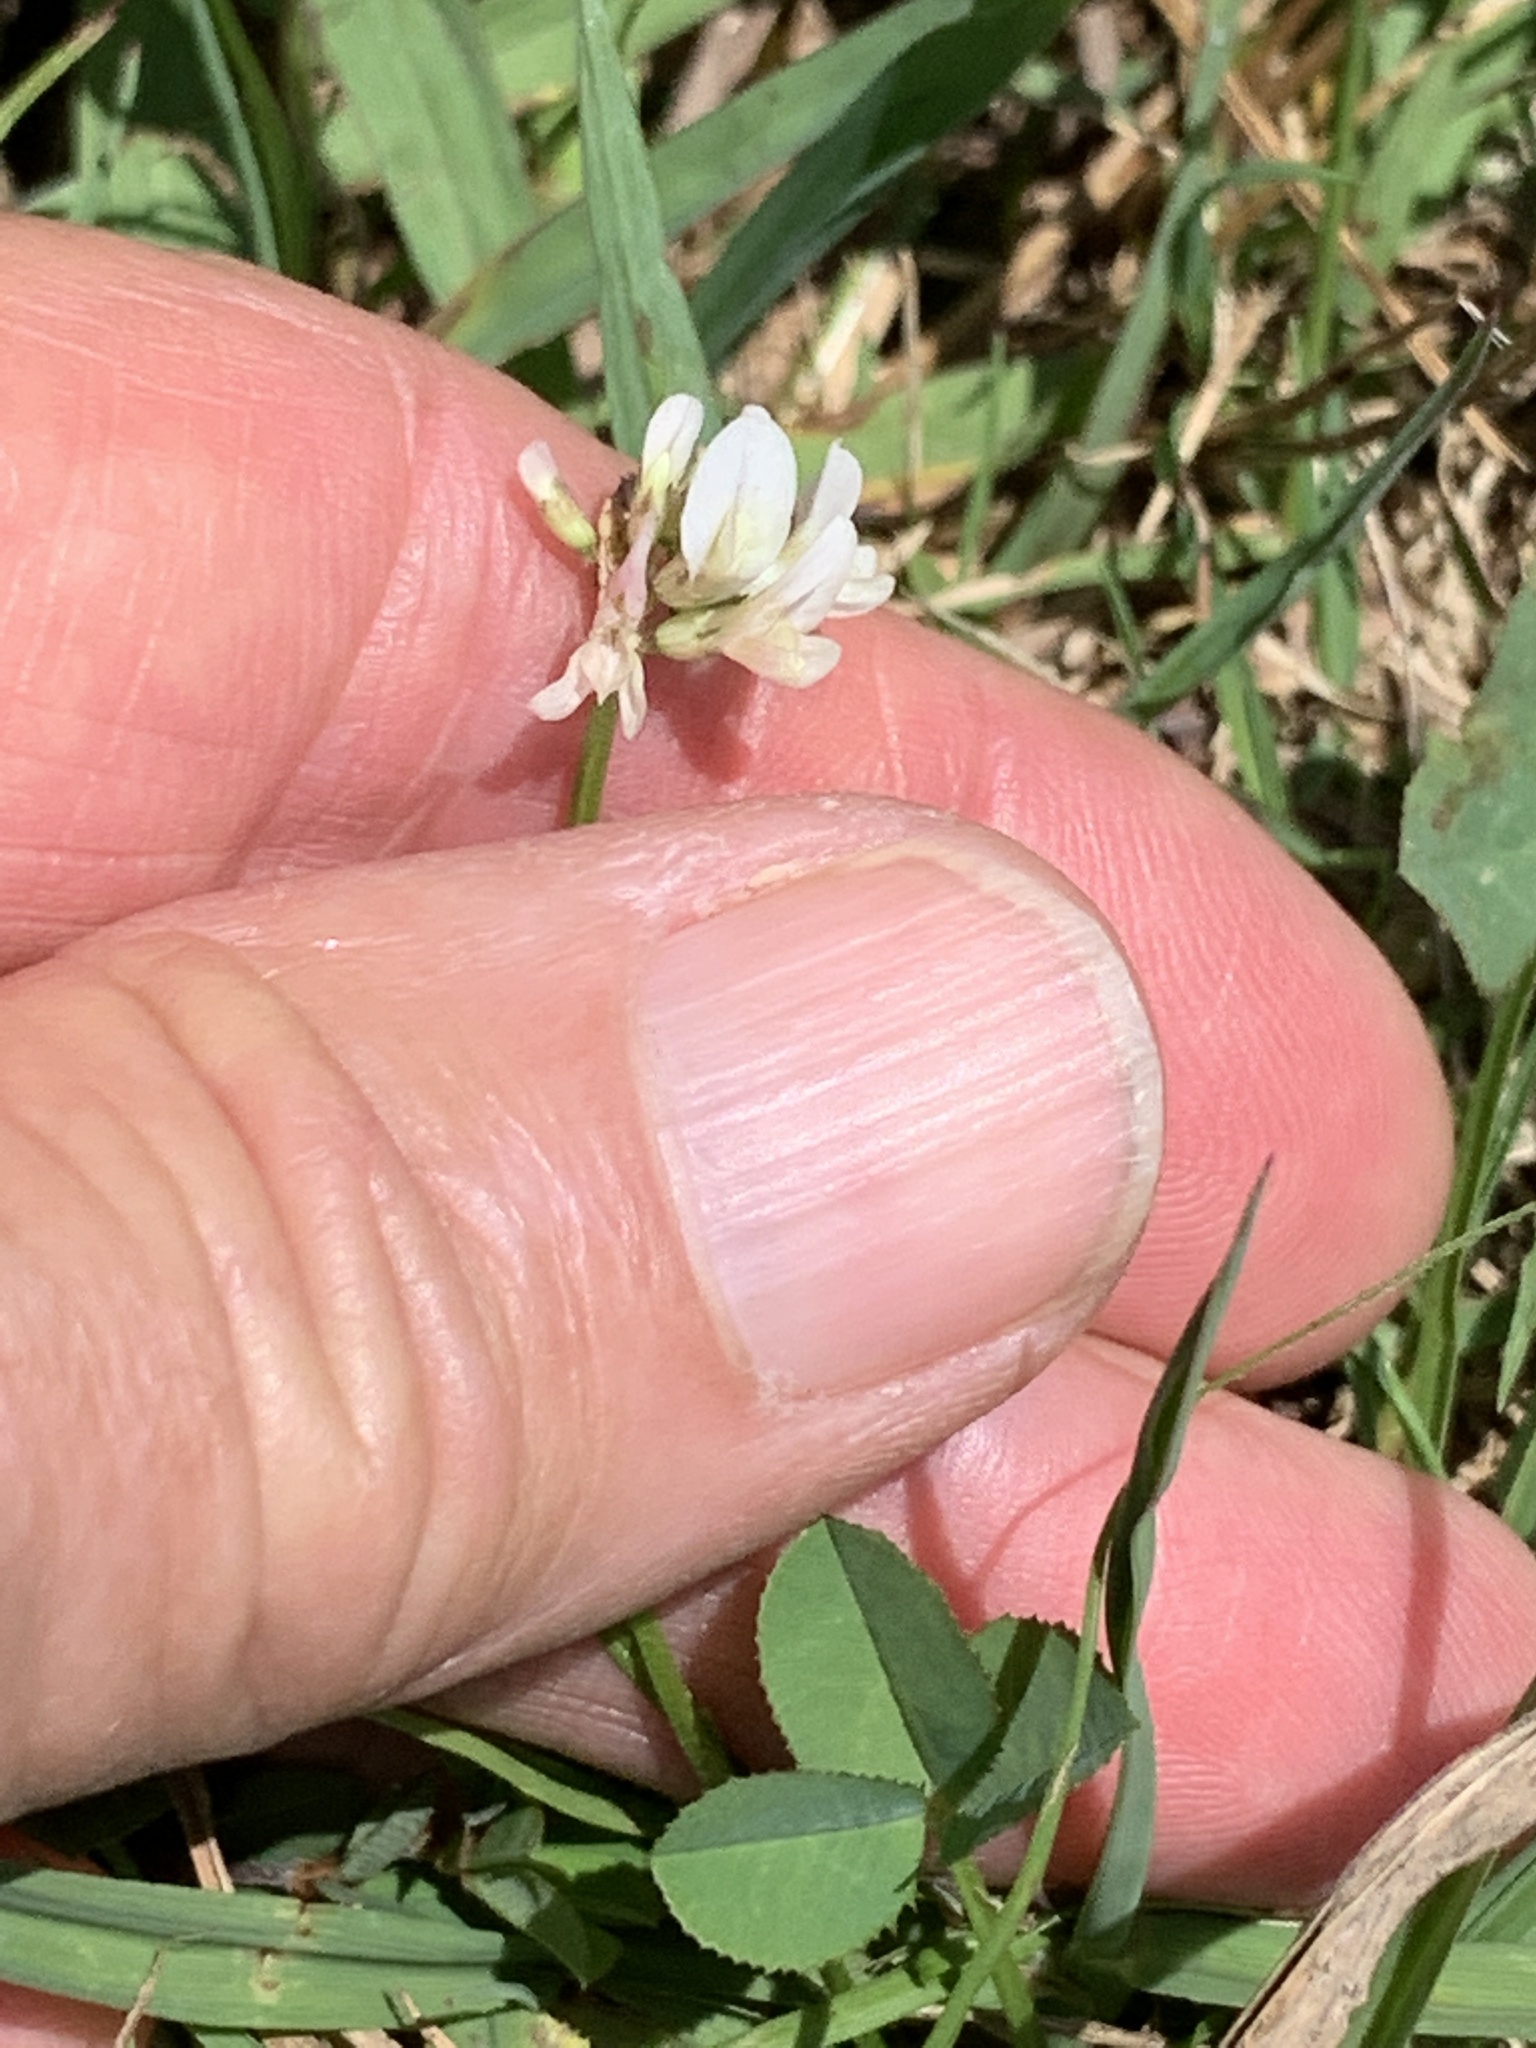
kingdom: Plantae
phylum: Tracheophyta
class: Magnoliopsida
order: Fabales
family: Fabaceae
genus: Trifolium
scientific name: Trifolium repens
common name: White clover
